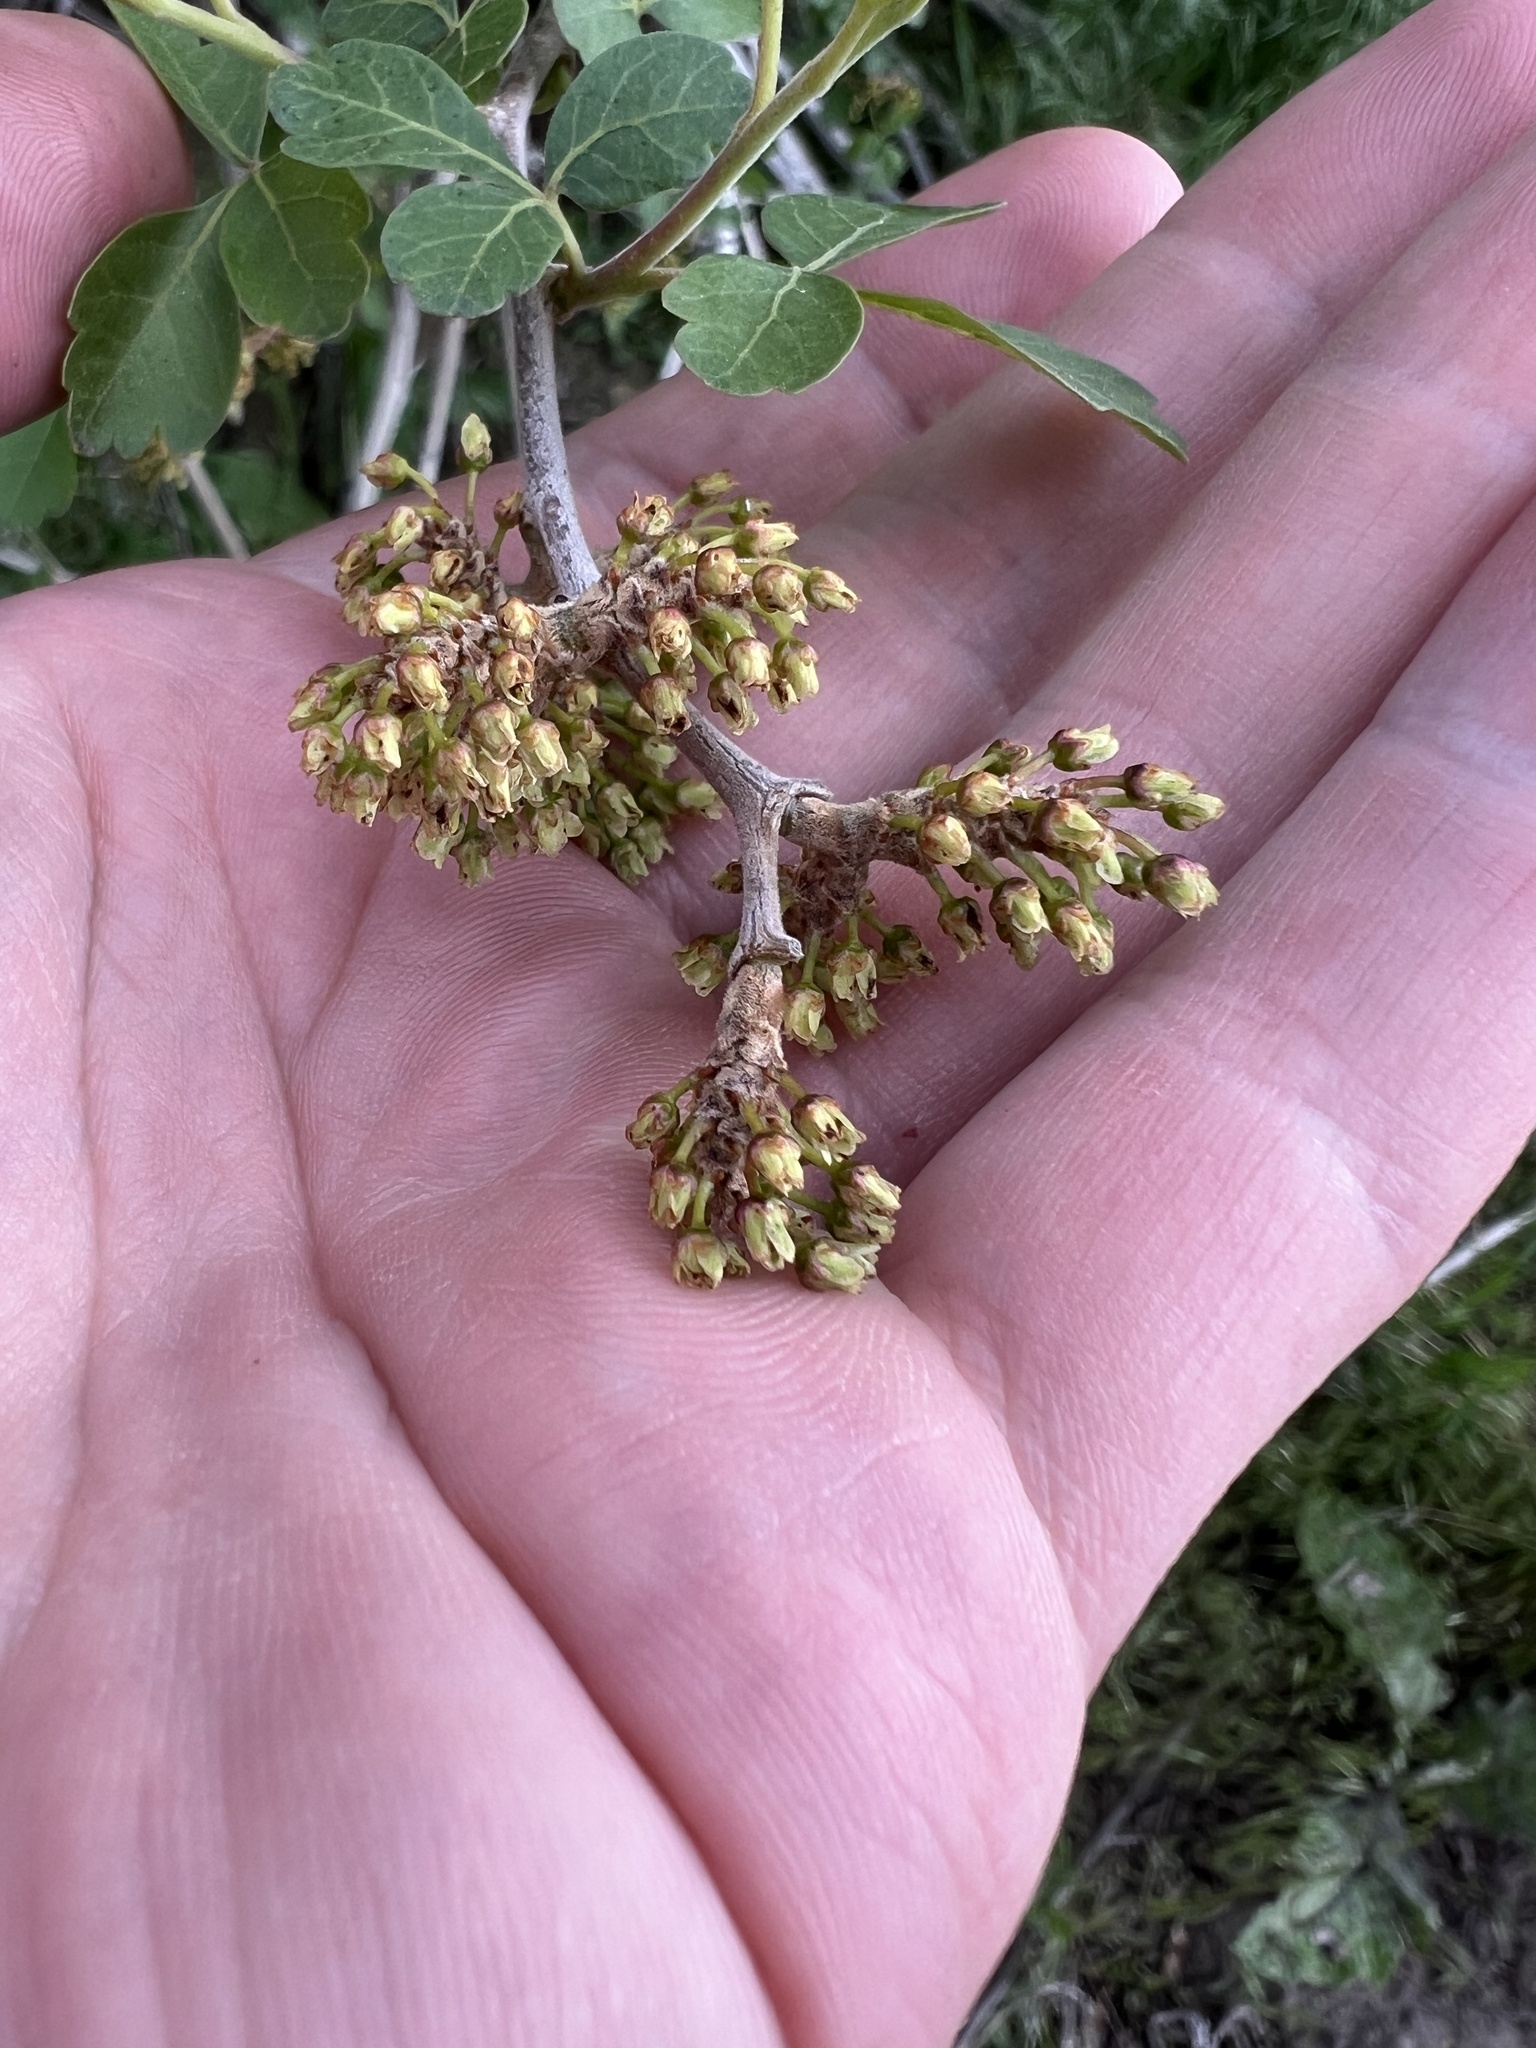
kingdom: Plantae
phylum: Tracheophyta
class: Magnoliopsida
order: Sapindales
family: Anacardiaceae
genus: Rhus
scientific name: Rhus trilobata
